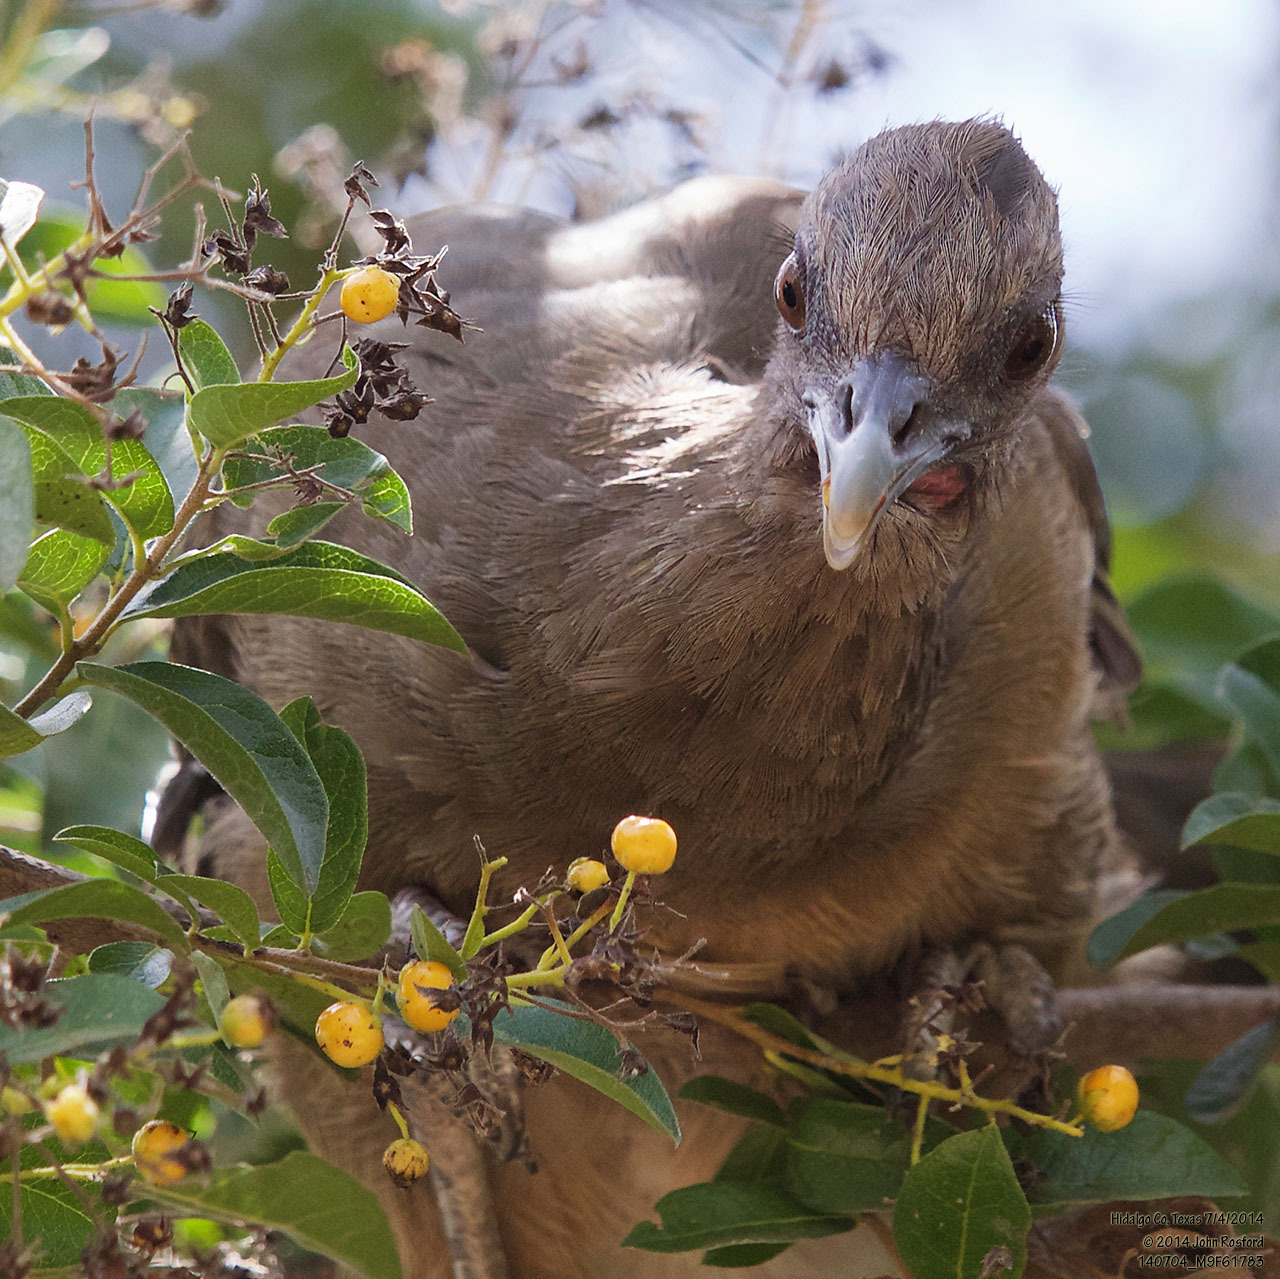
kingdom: Animalia
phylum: Chordata
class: Aves
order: Galliformes
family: Cracidae
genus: Ortalis
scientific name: Ortalis vetula
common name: Plain chachalaca
